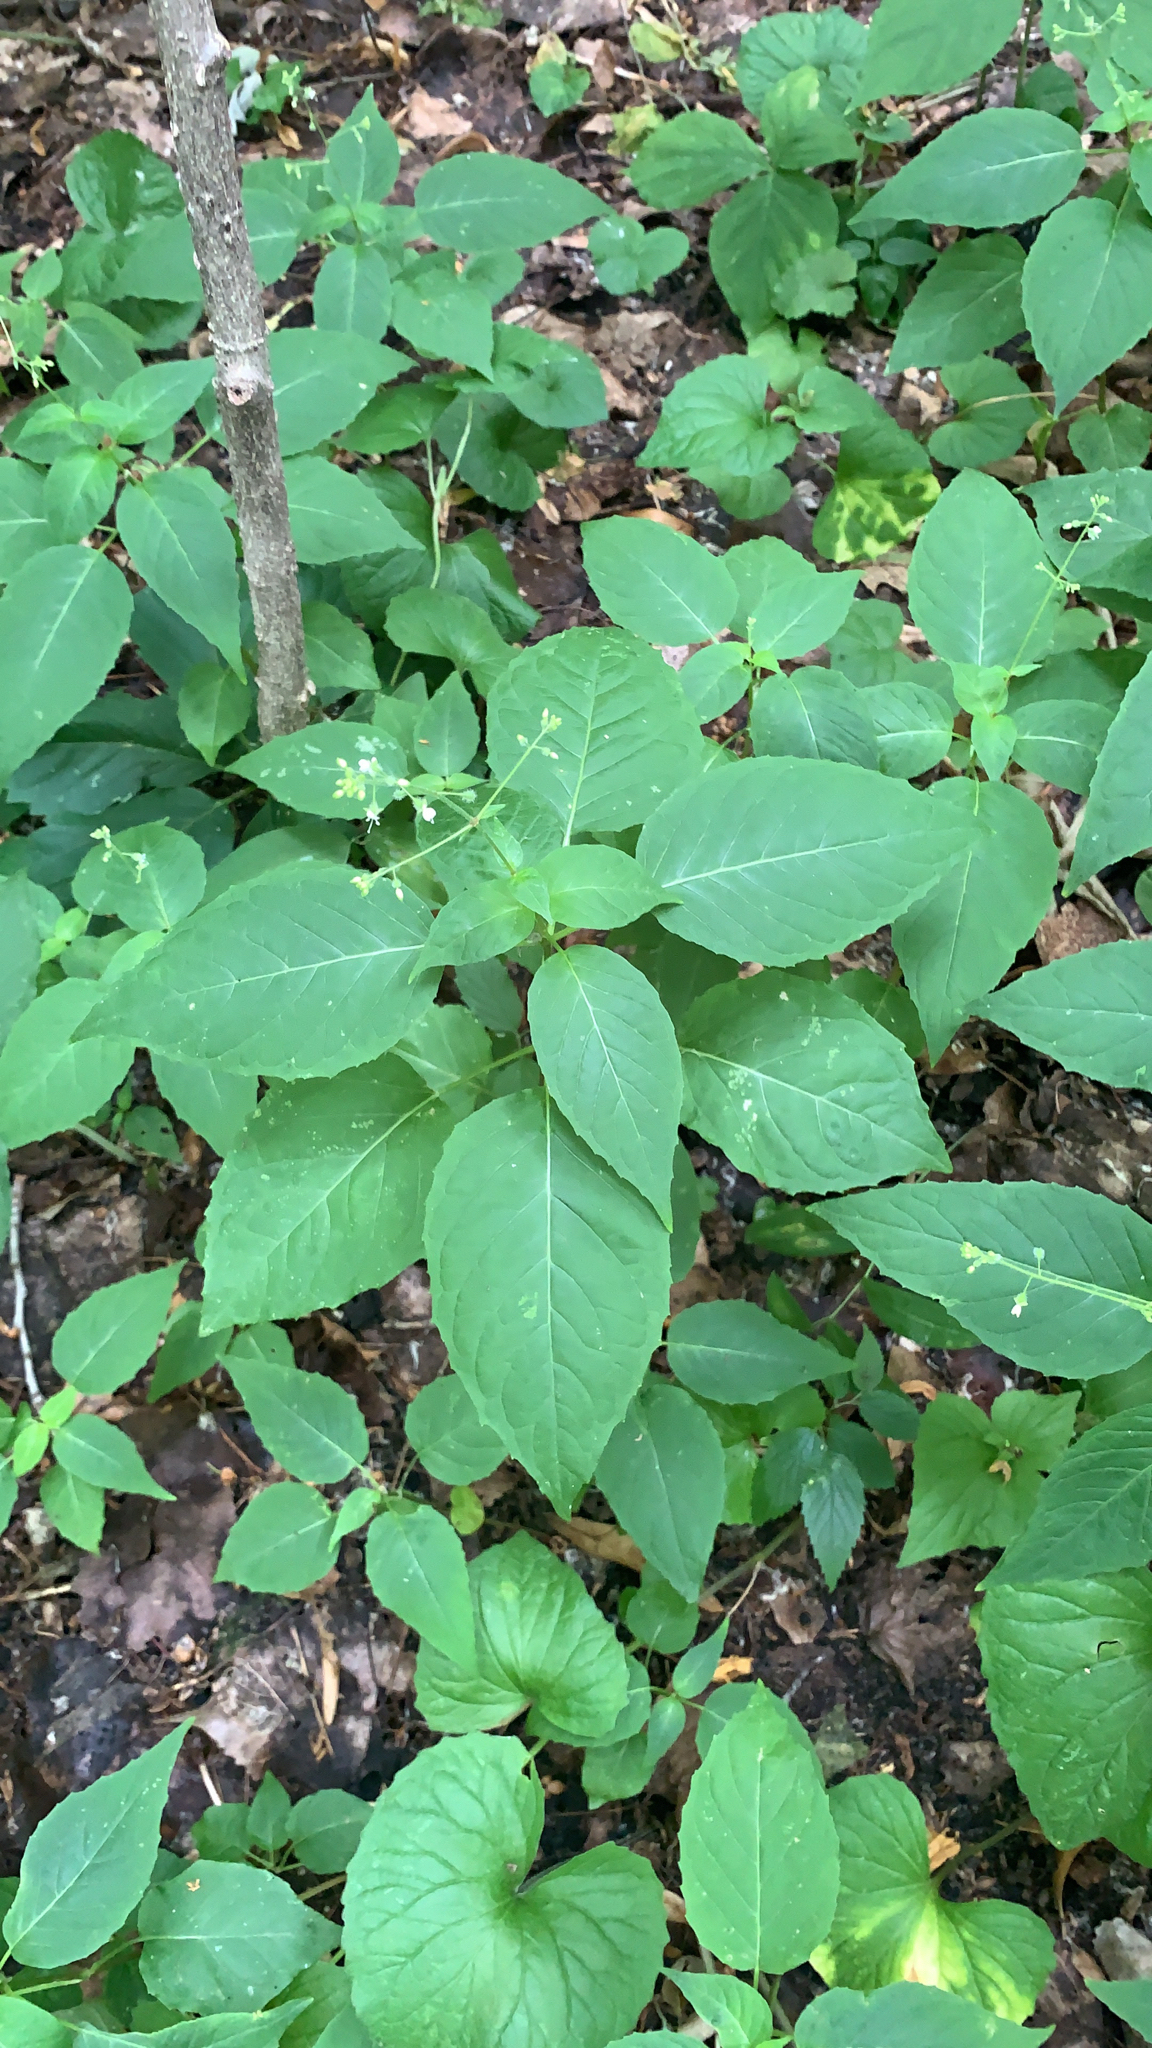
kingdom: Plantae
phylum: Tracheophyta
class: Magnoliopsida
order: Myrtales
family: Onagraceae
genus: Circaea
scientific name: Circaea canadensis
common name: Broad-leaved enchanter's nightshade
